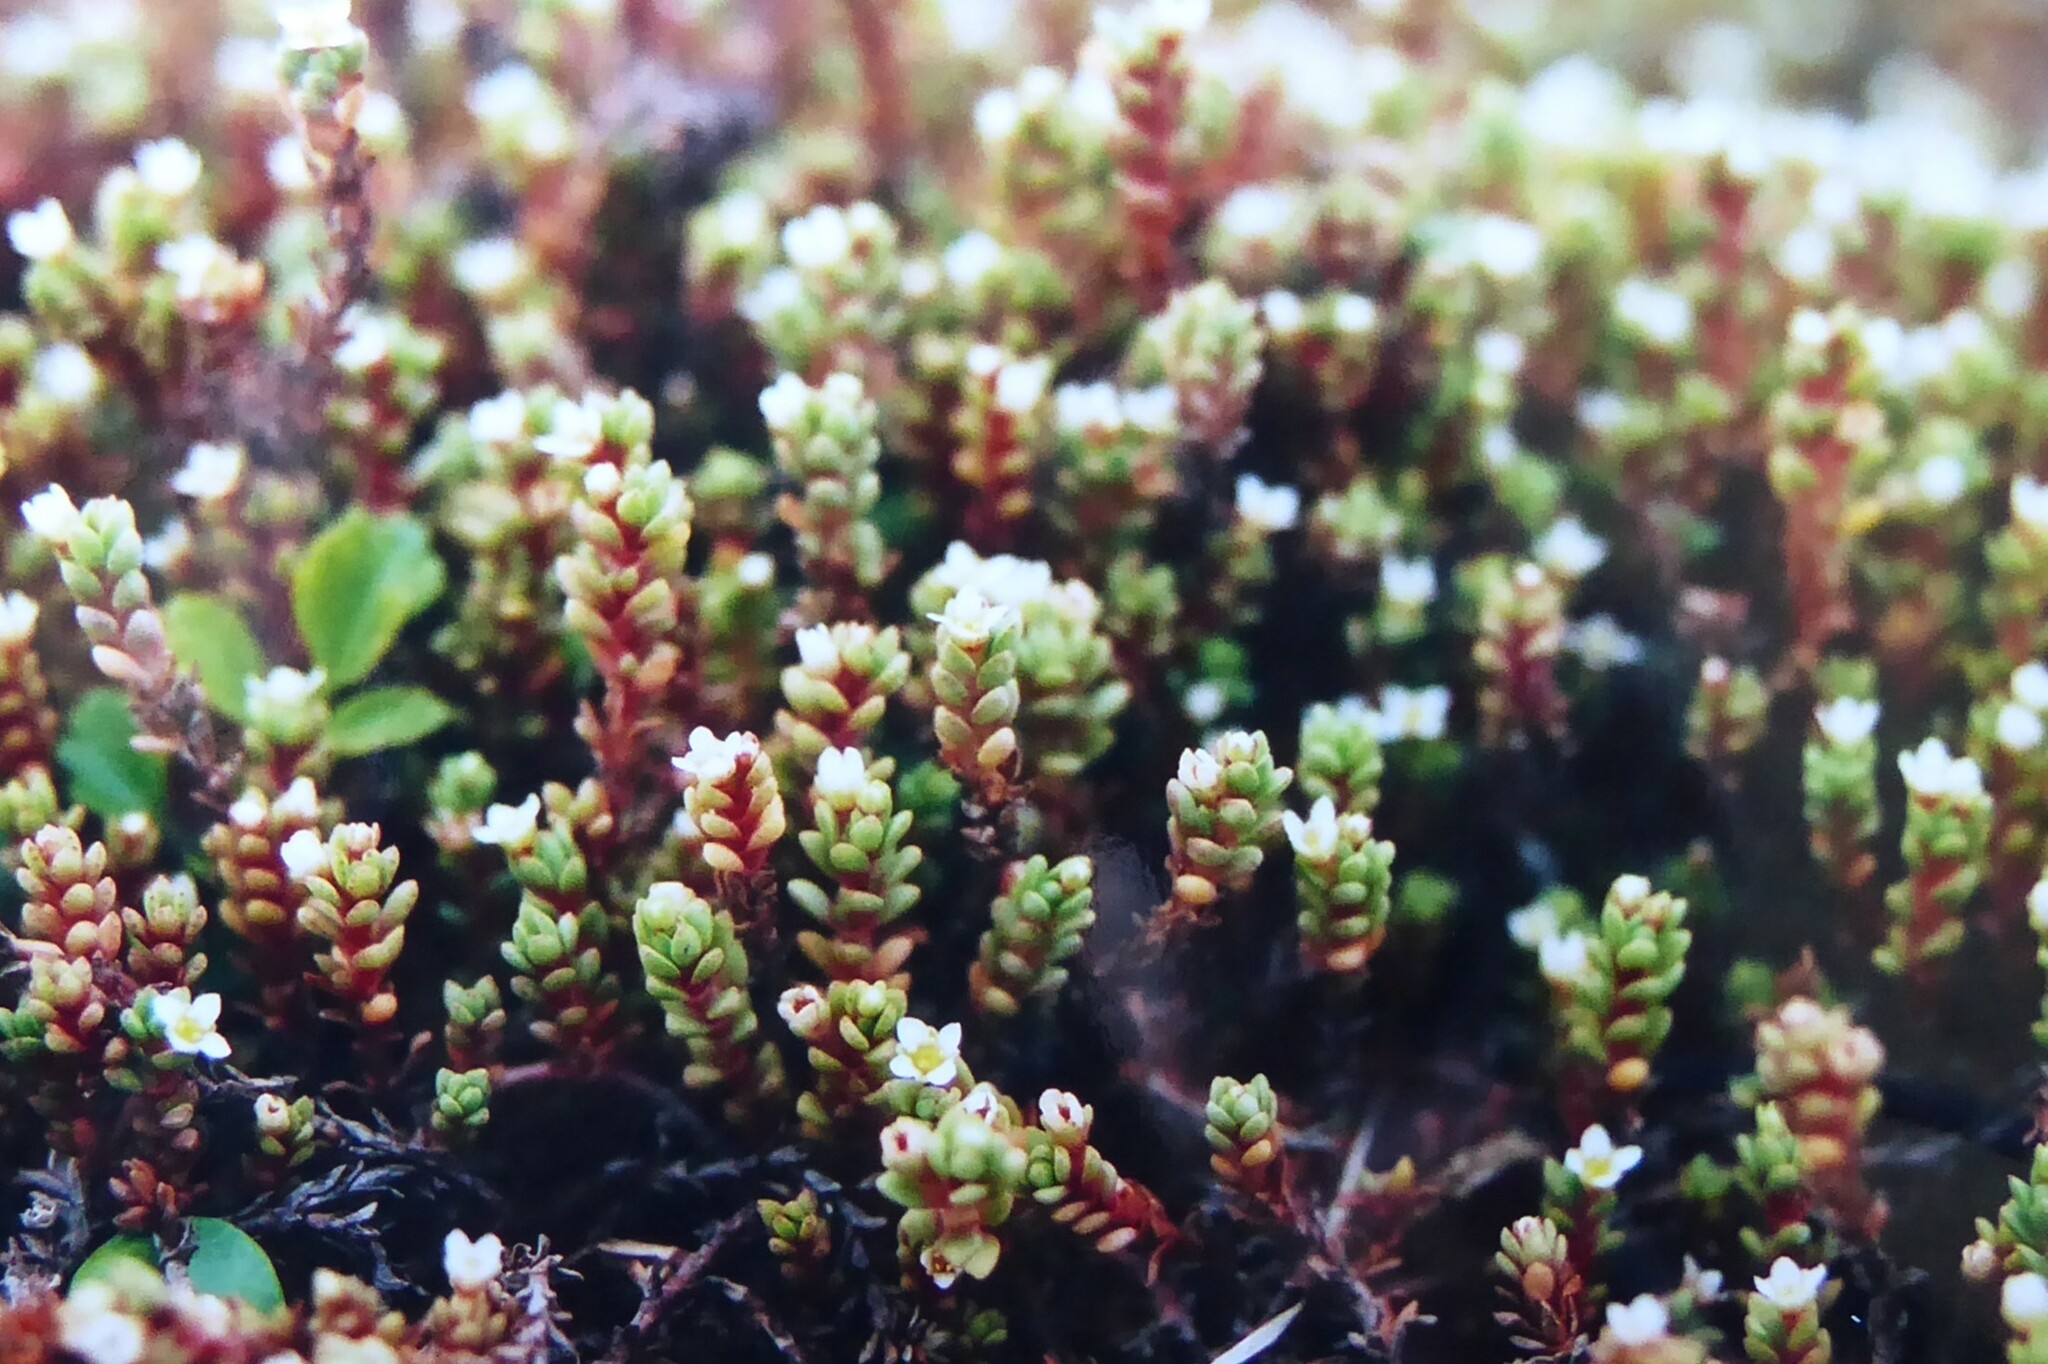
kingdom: Plantae
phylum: Tracheophyta
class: Magnoliopsida
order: Saxifragales
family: Crassulaceae
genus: Crassula
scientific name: Crassula moschata
